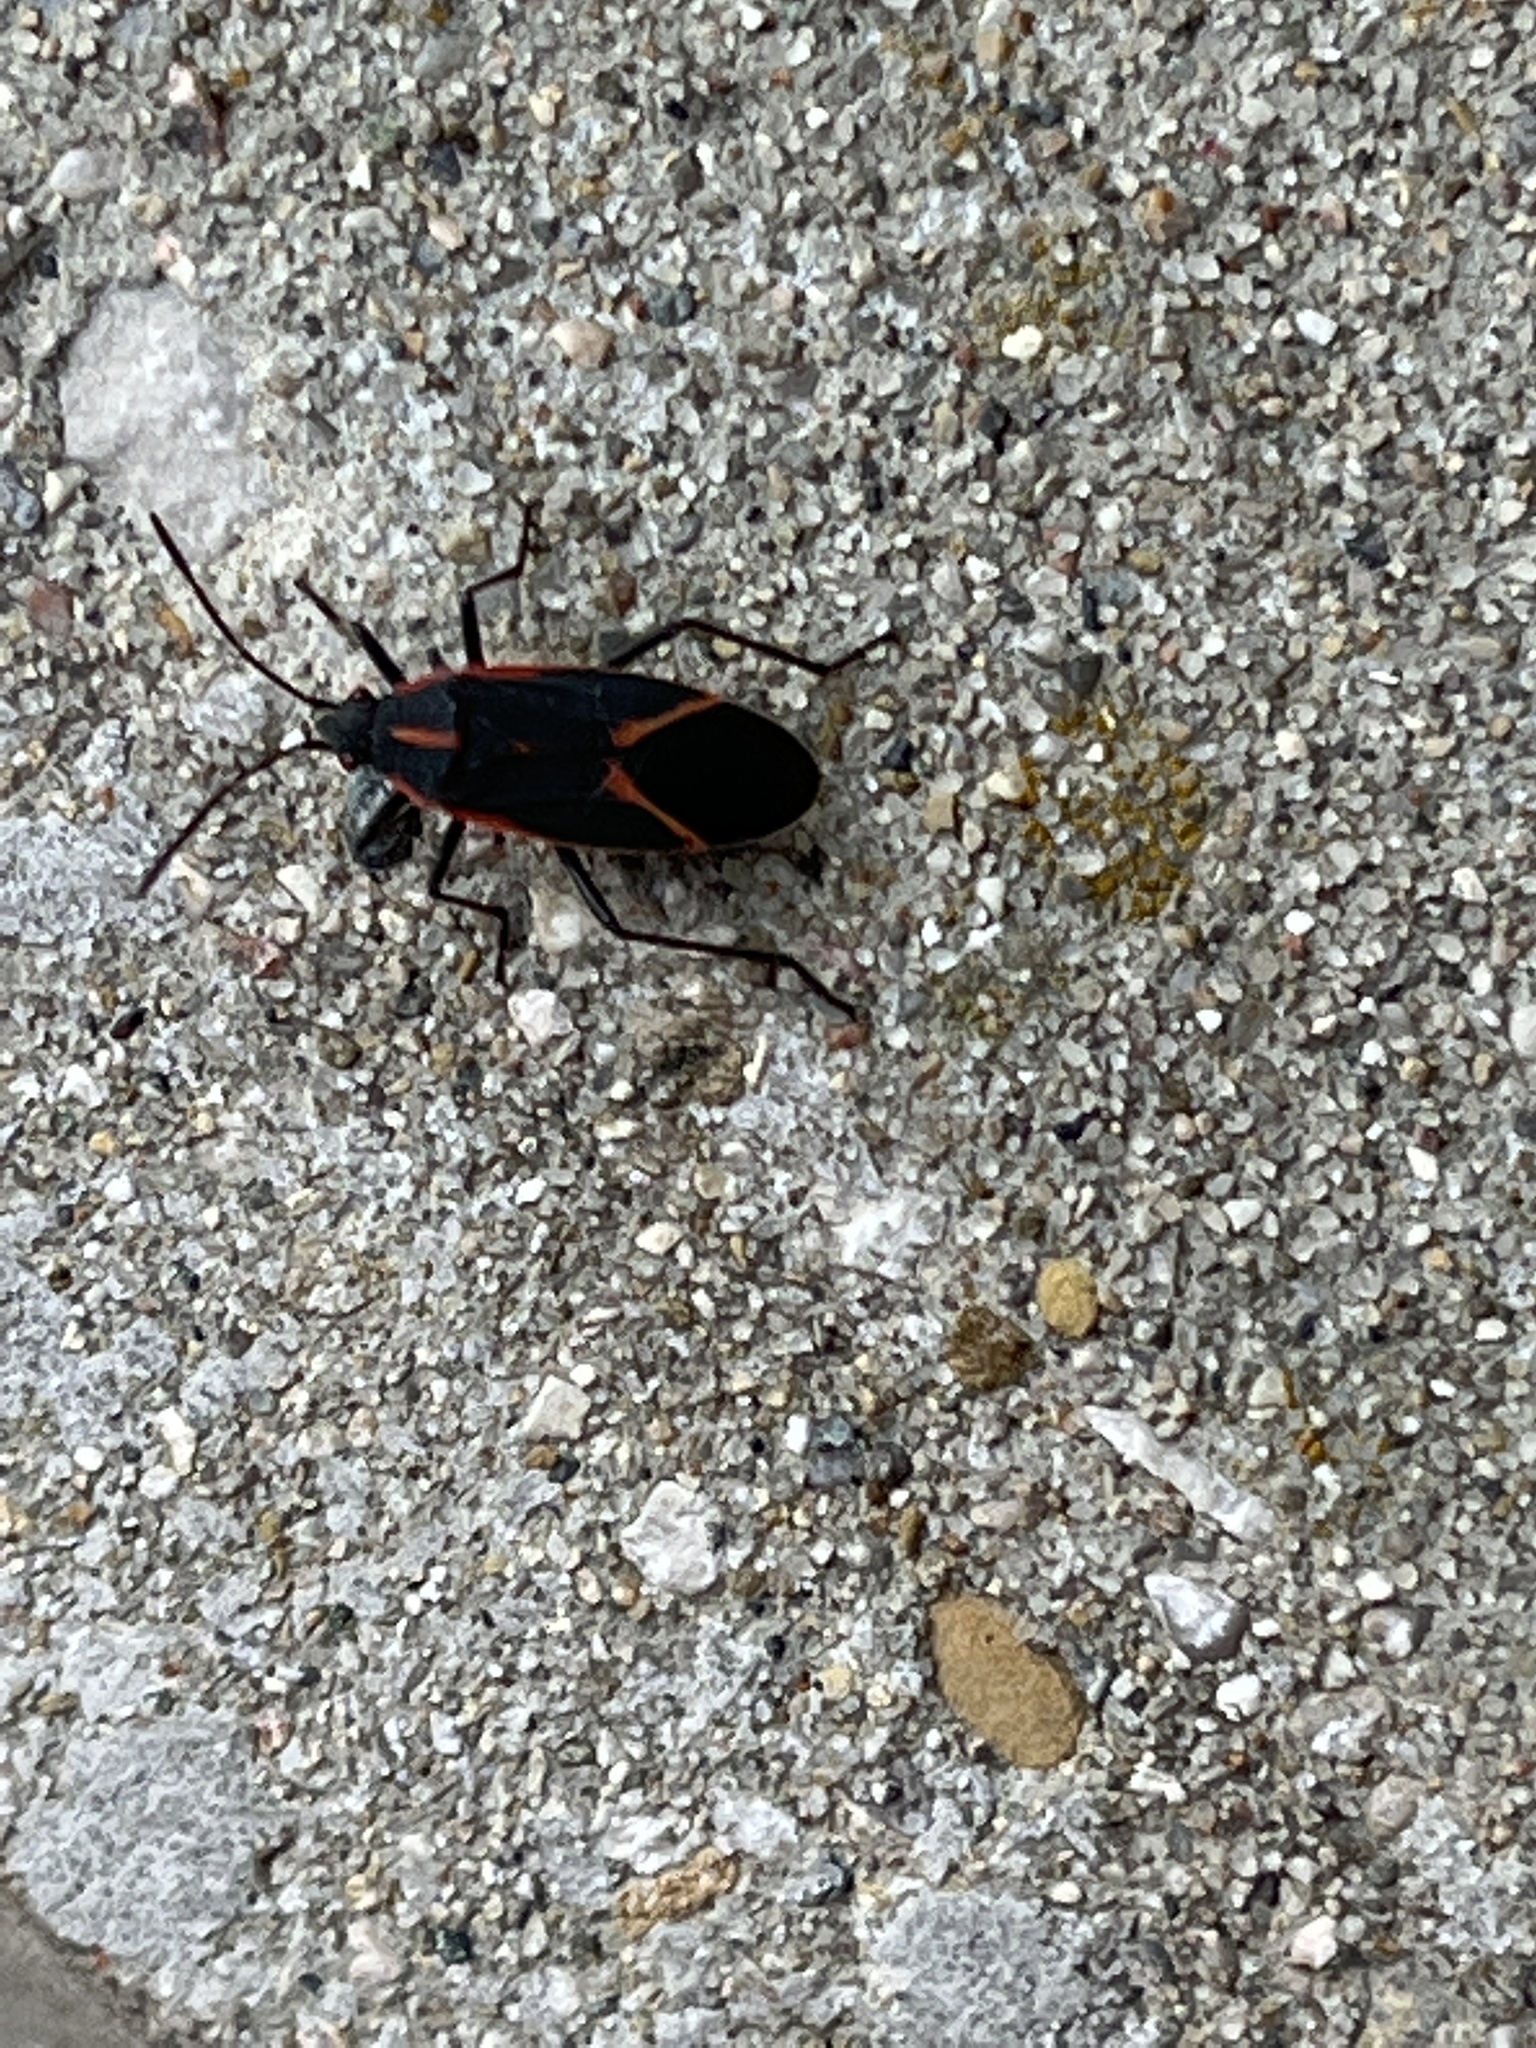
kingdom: Animalia
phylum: Arthropoda
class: Insecta
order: Hemiptera
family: Rhopalidae
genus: Boisea
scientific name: Boisea trivittata
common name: Boxelder bug
